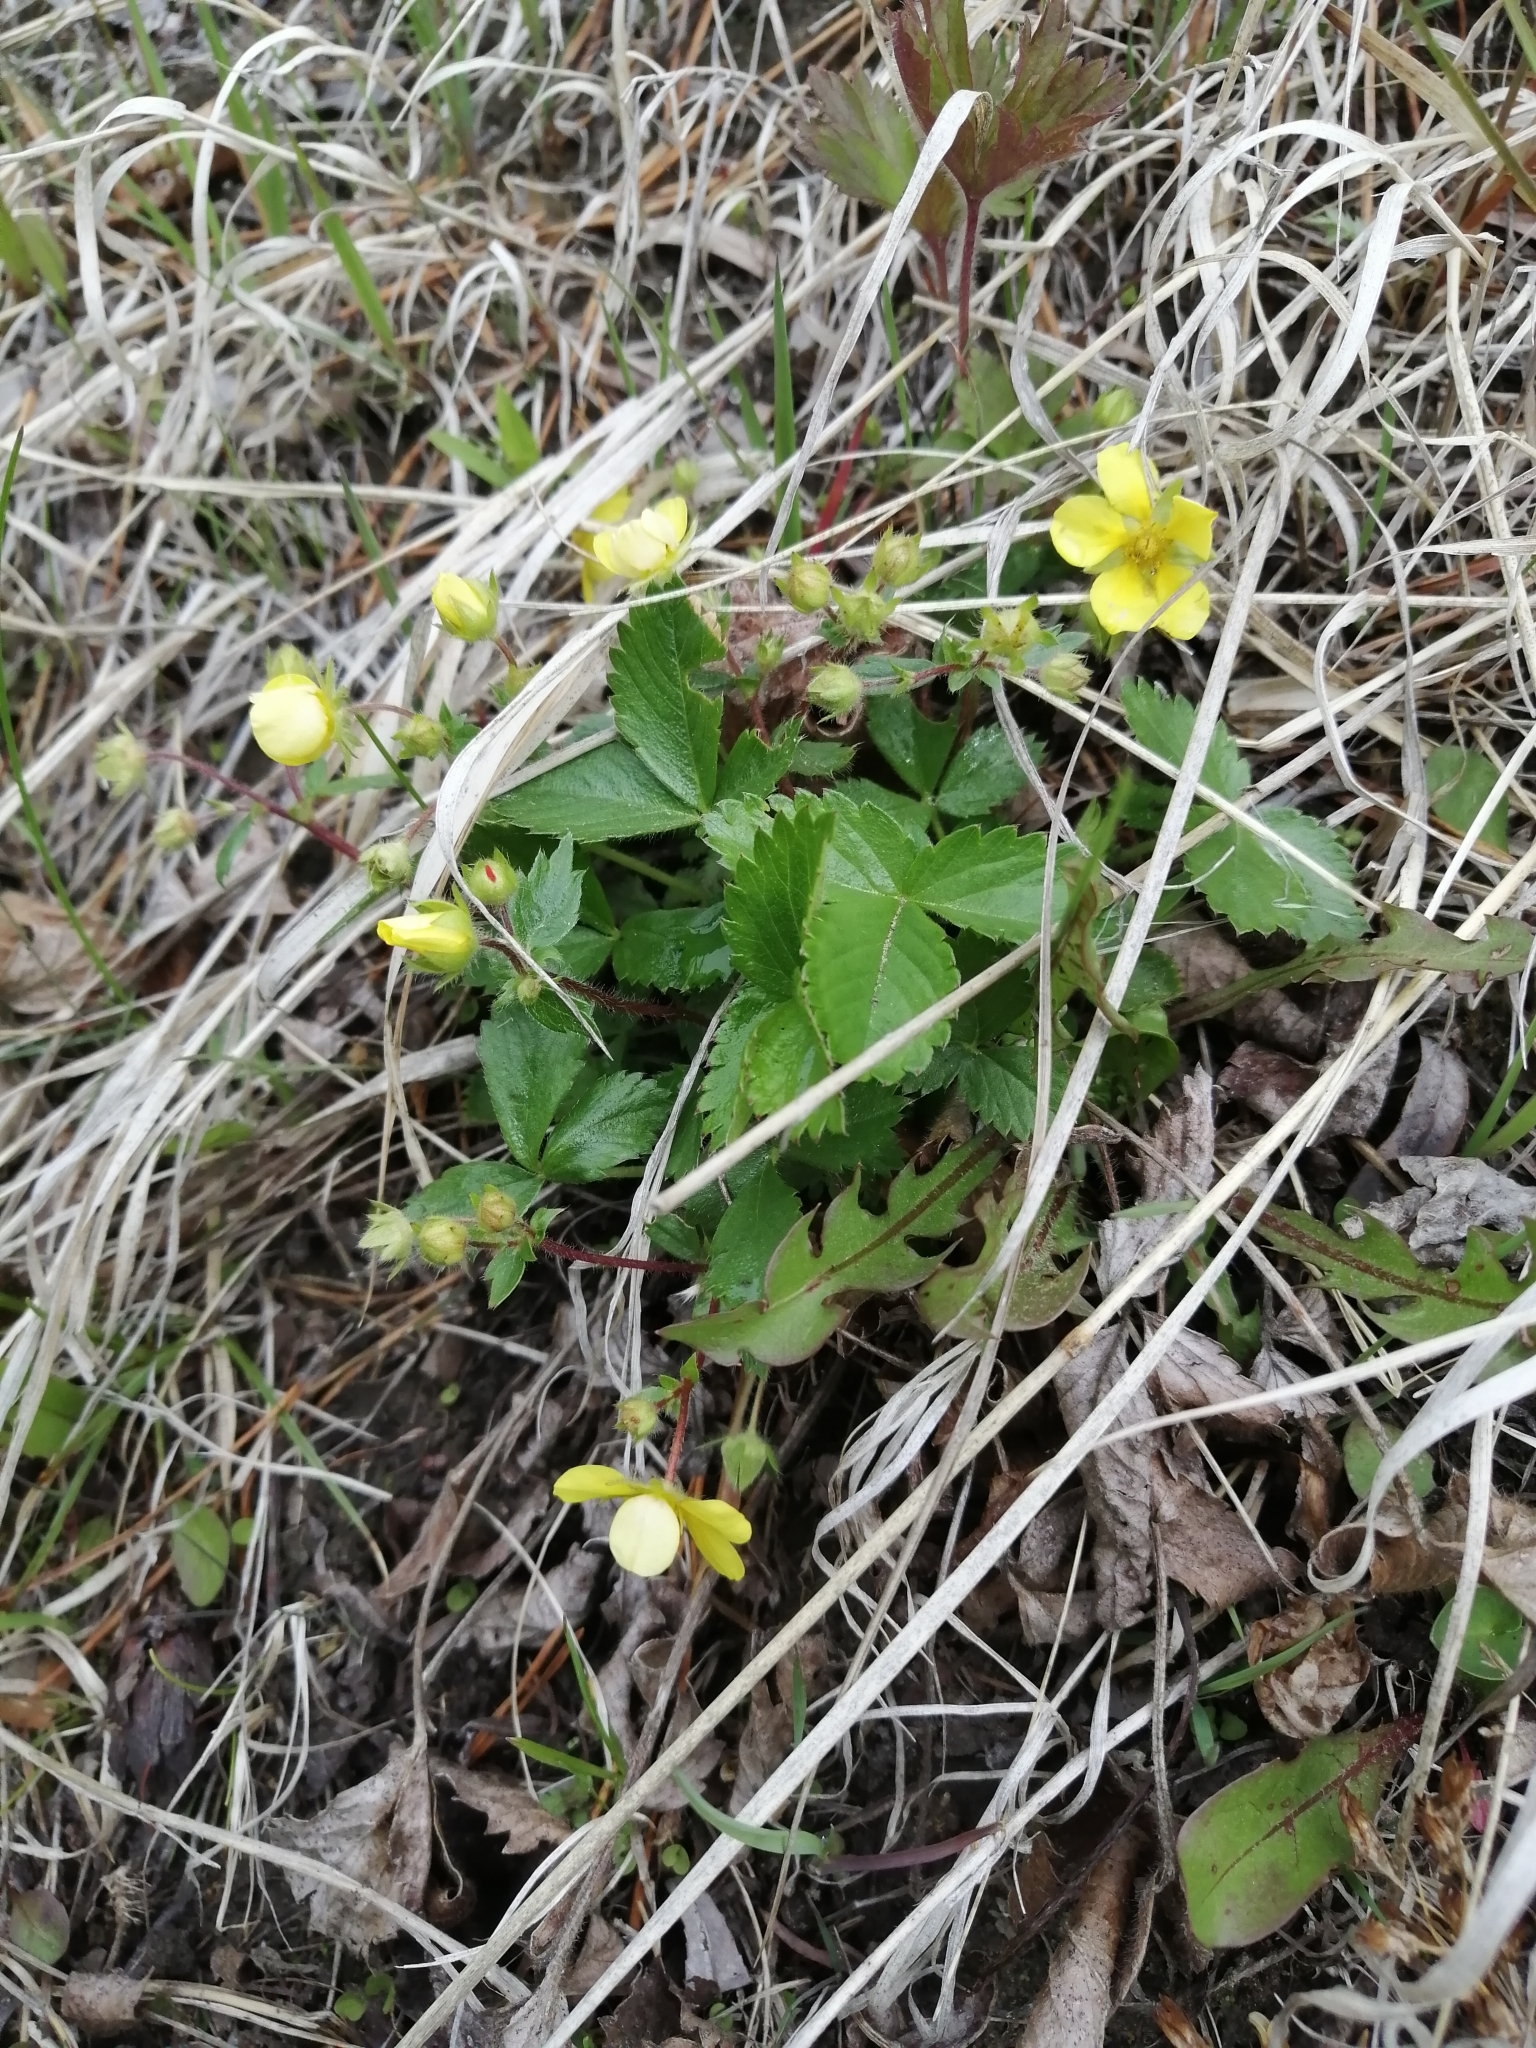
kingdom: Plantae
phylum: Tracheophyta
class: Magnoliopsida
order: Rosales
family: Rosaceae
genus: Potentilla
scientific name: Potentilla fragarioides
